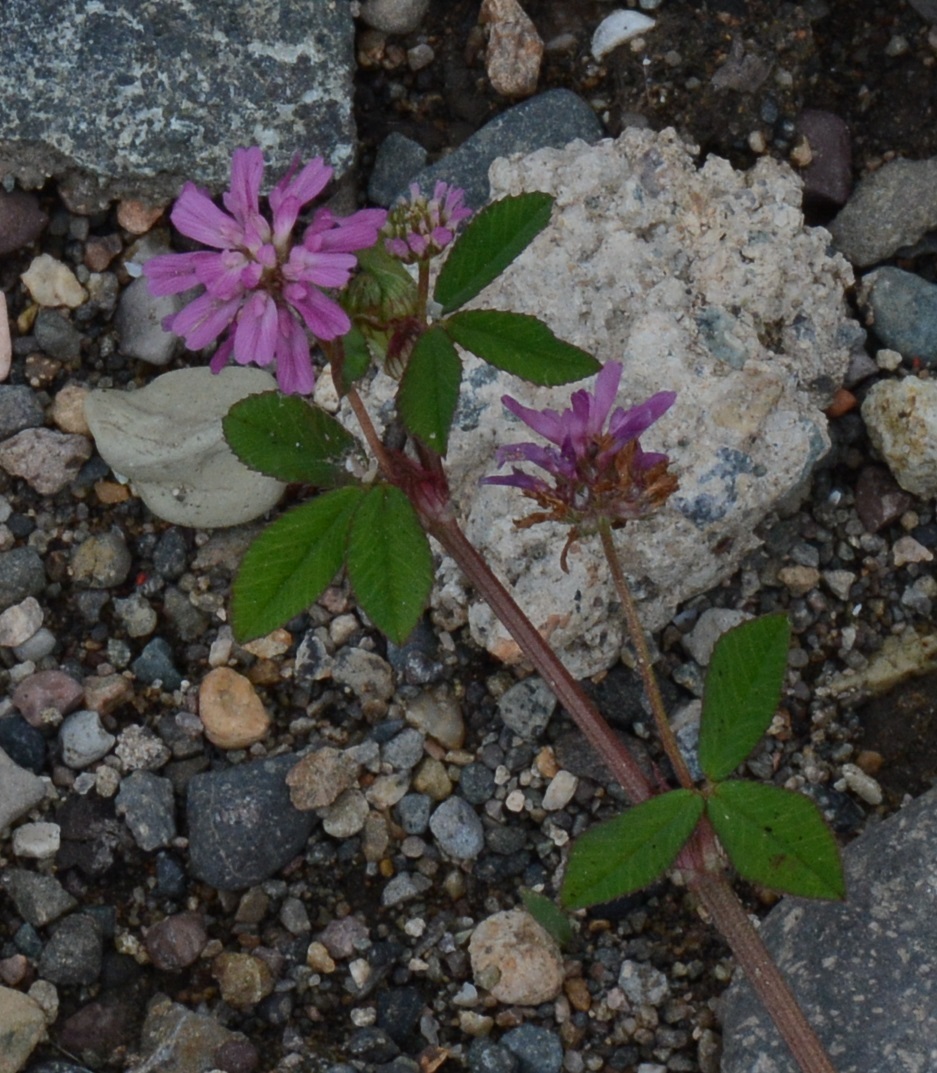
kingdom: Plantae
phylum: Tracheophyta
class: Magnoliopsida
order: Fabales
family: Fabaceae
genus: Trifolium
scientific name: Trifolium resupinatum
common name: Reversed clover
